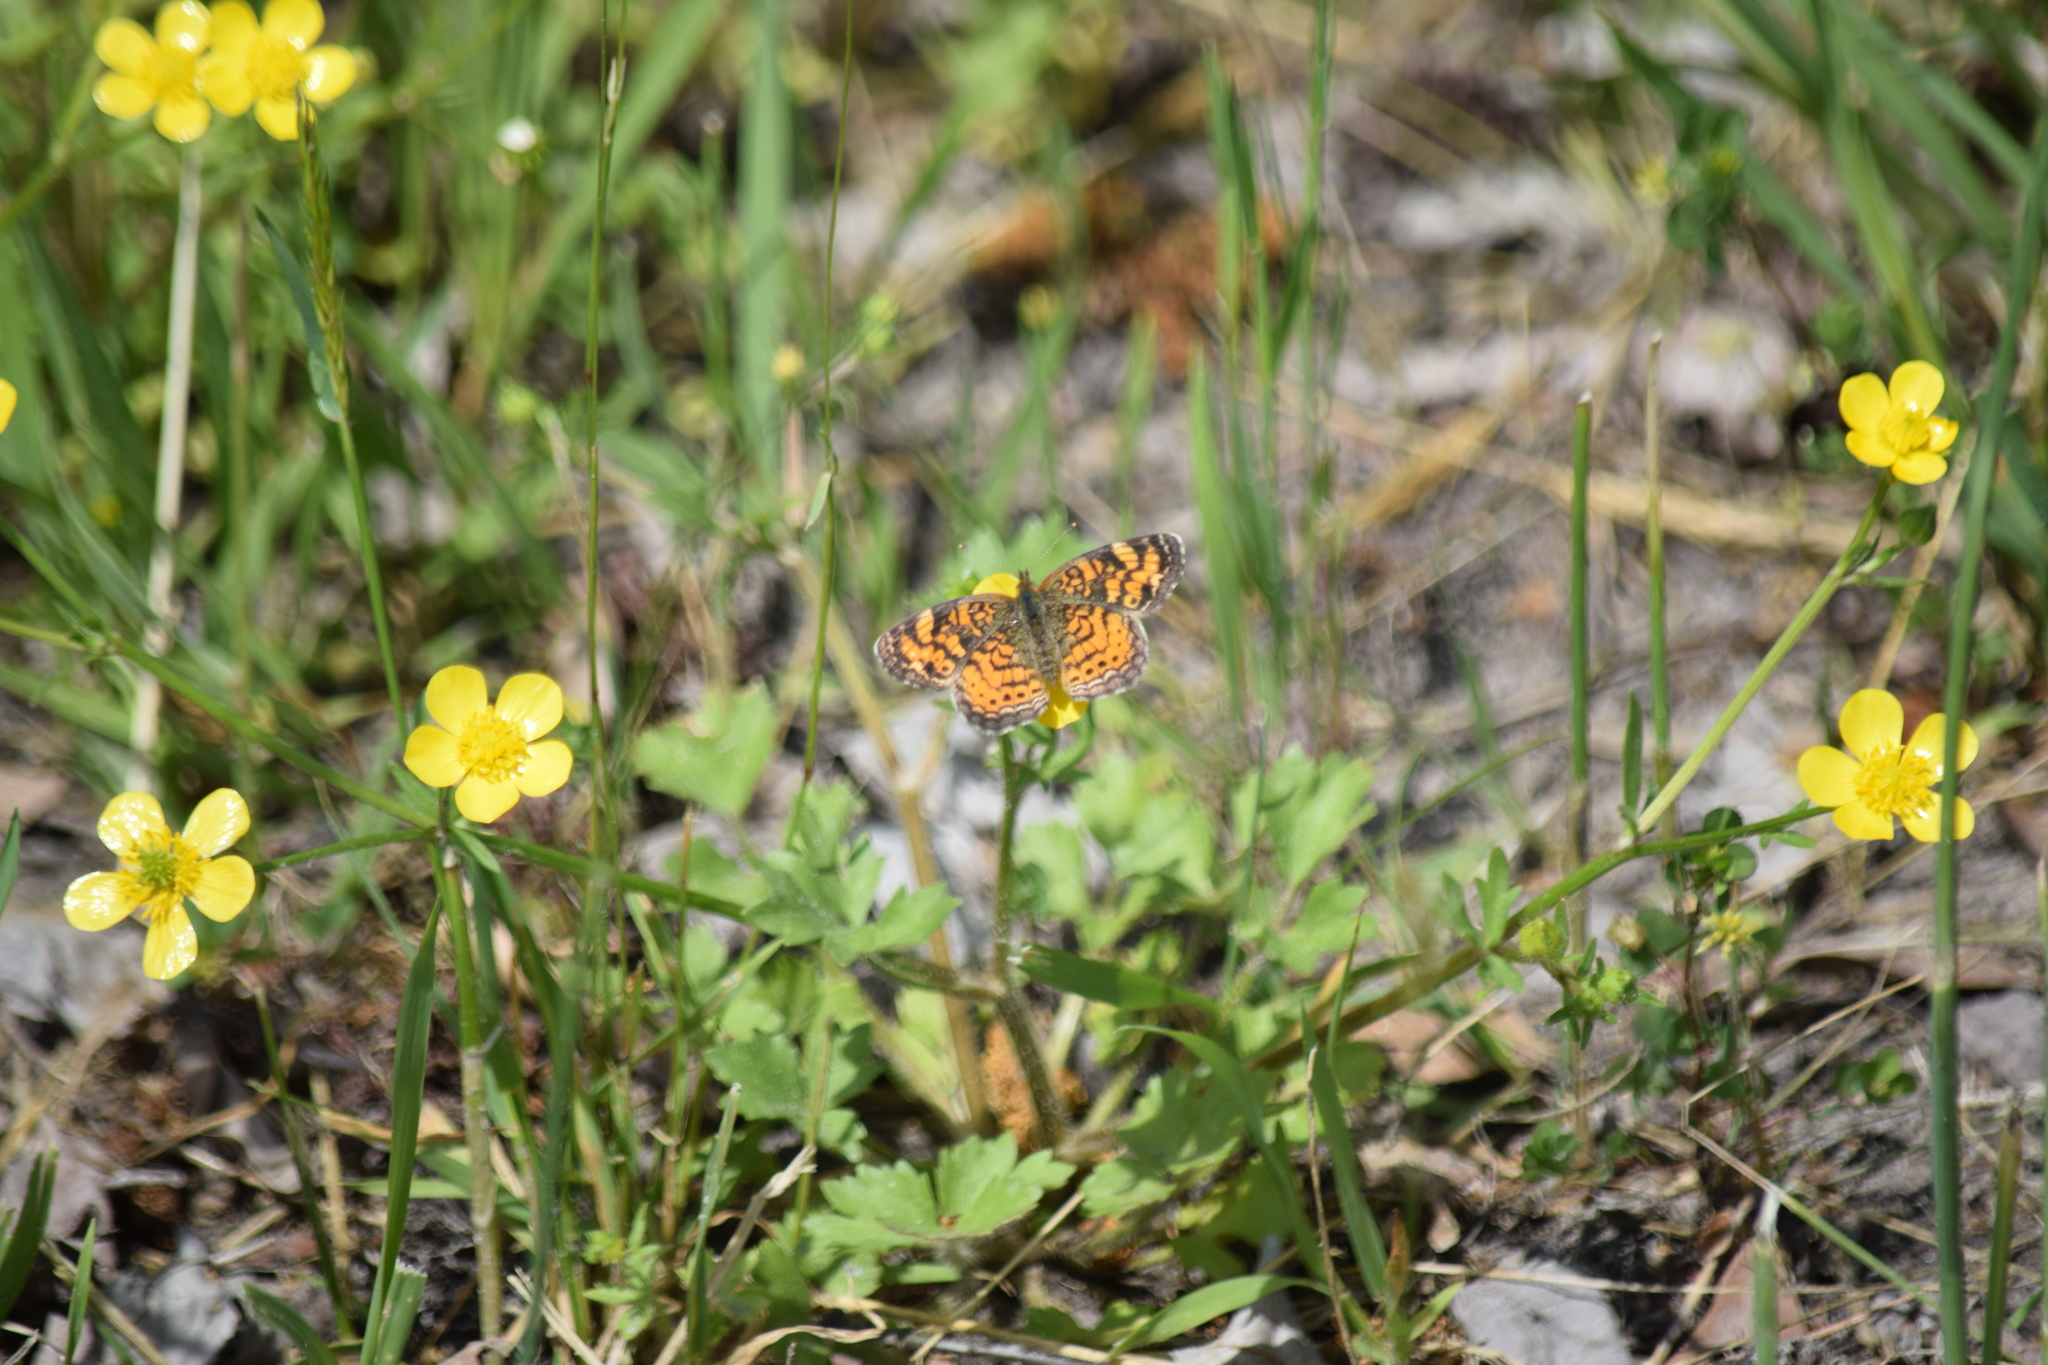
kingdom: Animalia
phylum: Arthropoda
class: Insecta
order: Lepidoptera
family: Nymphalidae
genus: Phyciodes
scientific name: Phyciodes tharos
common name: Pearl crescent
